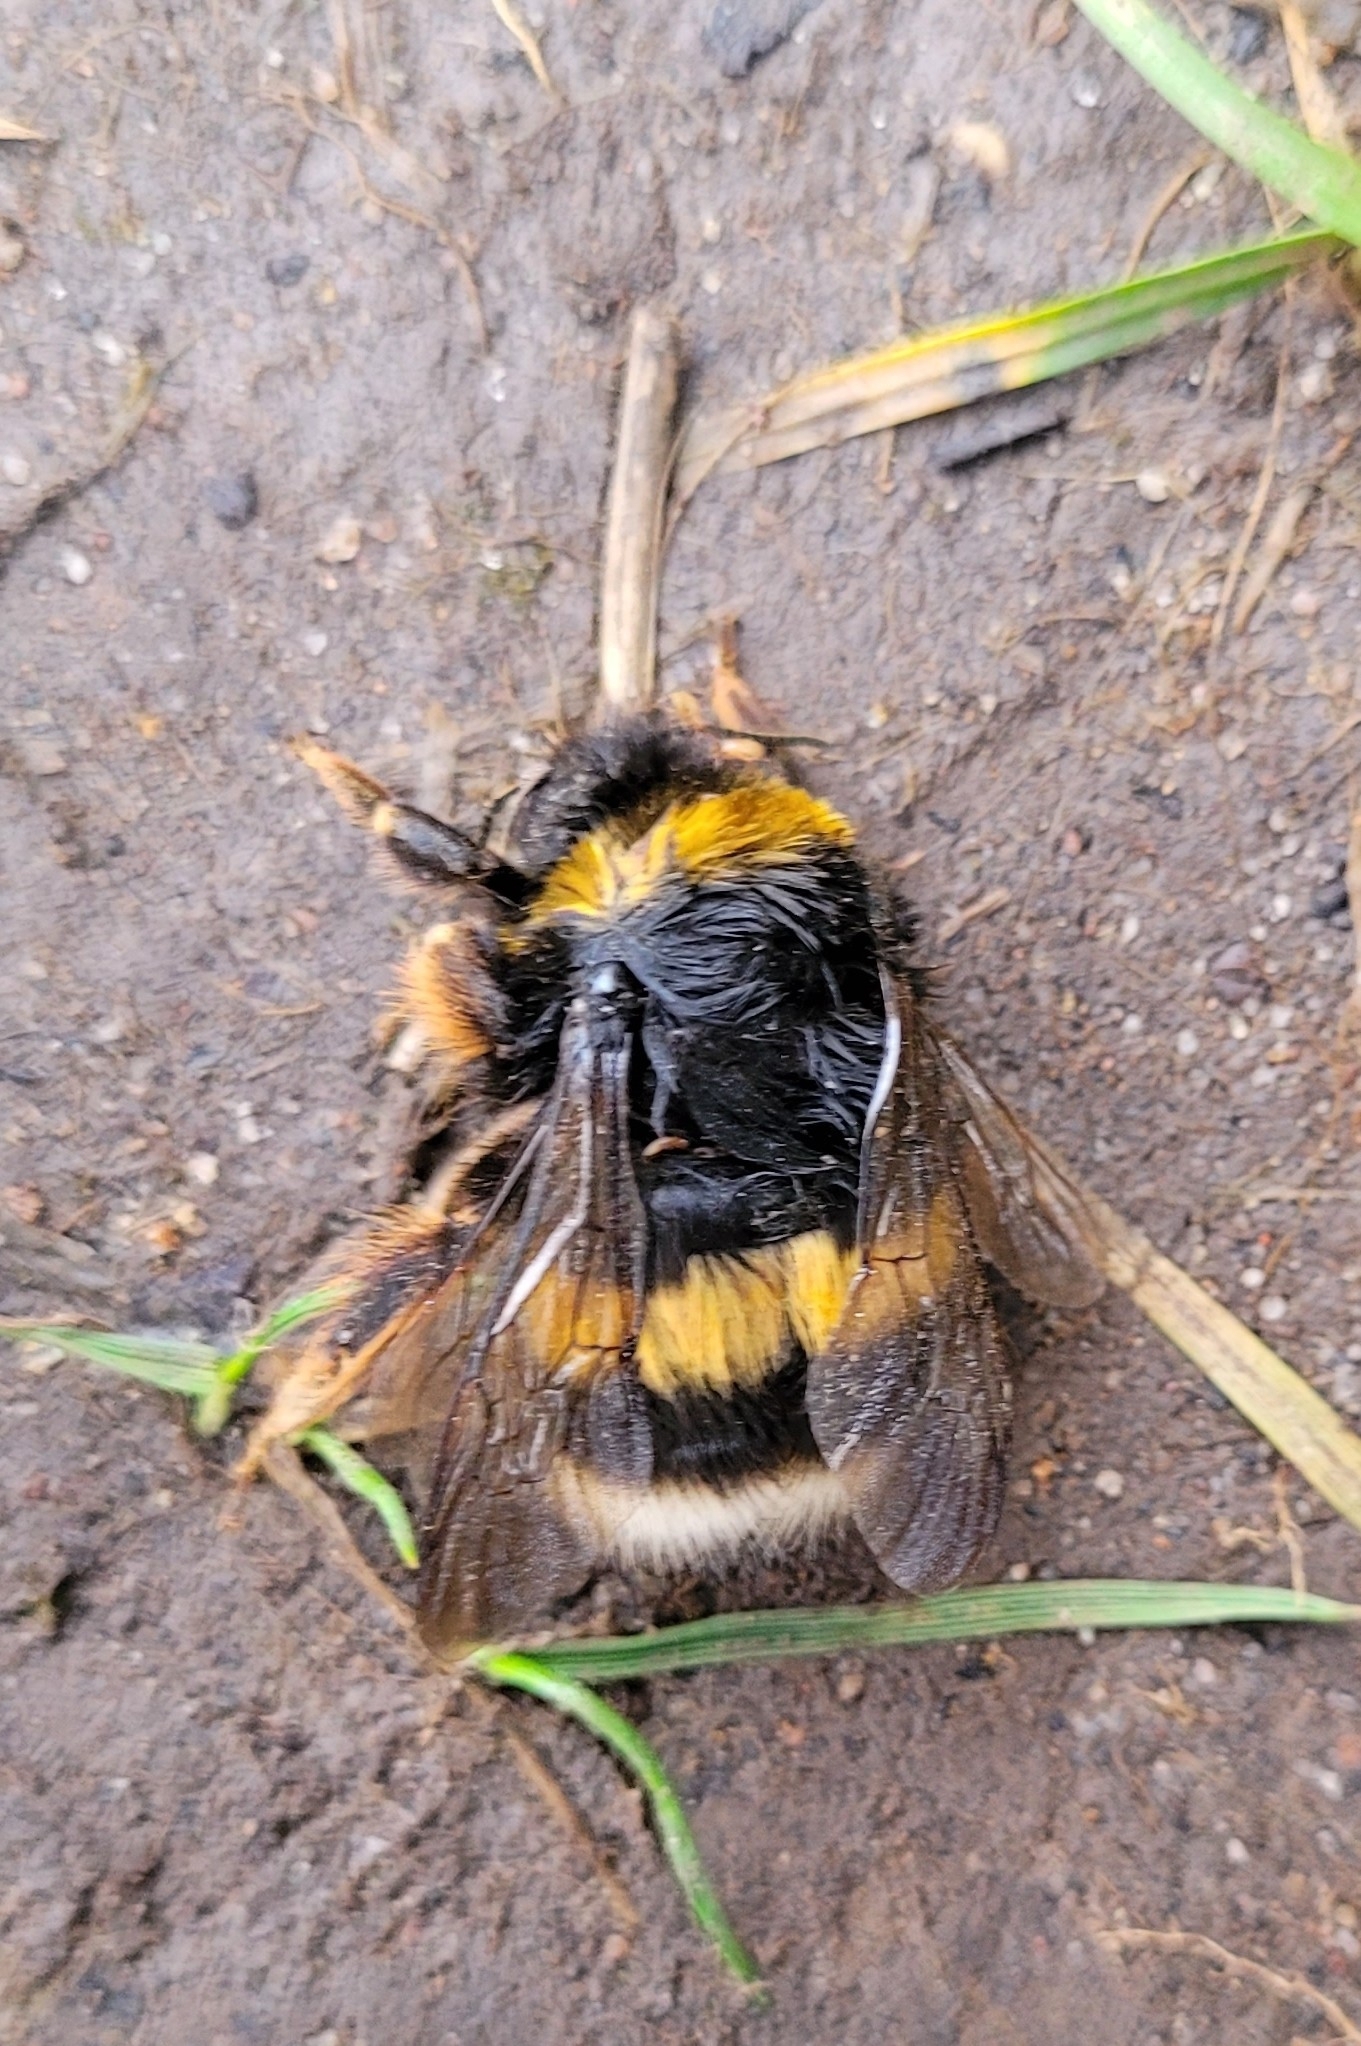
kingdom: Animalia
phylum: Arthropoda
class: Insecta
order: Hymenoptera
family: Apidae
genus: Bombus
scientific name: Bombus terrestris
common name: Buff-tailed bumblebee
